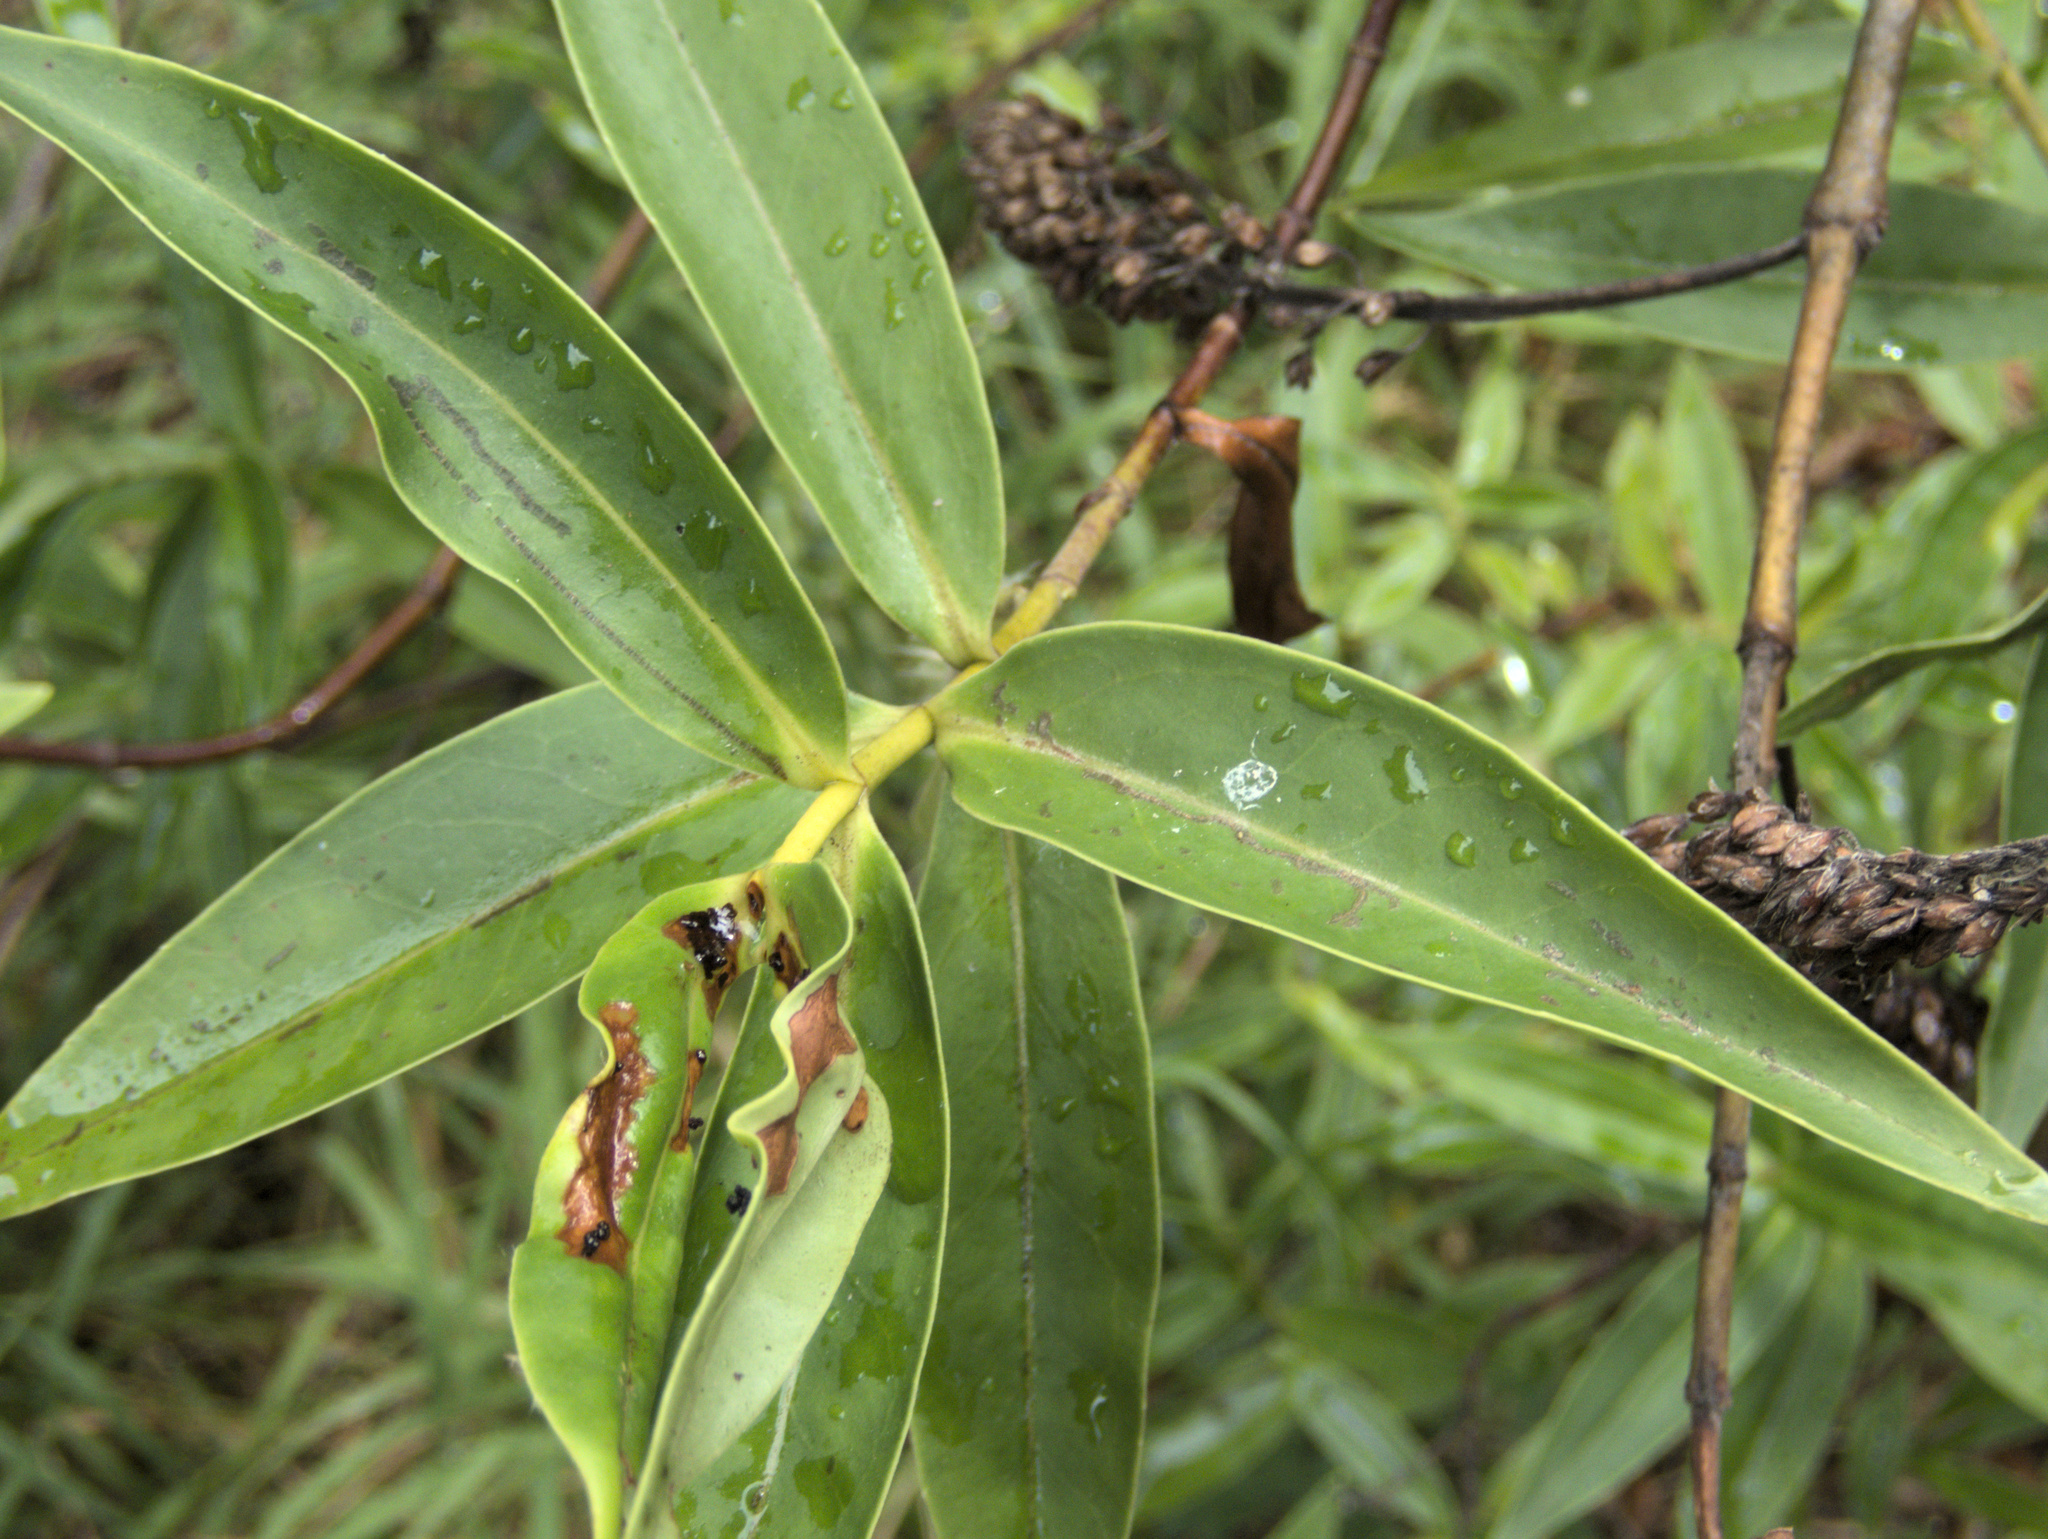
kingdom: Plantae
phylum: Tracheophyta
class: Magnoliopsida
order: Lamiales
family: Plantaginaceae
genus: Veronica
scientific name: Veronica stricta
